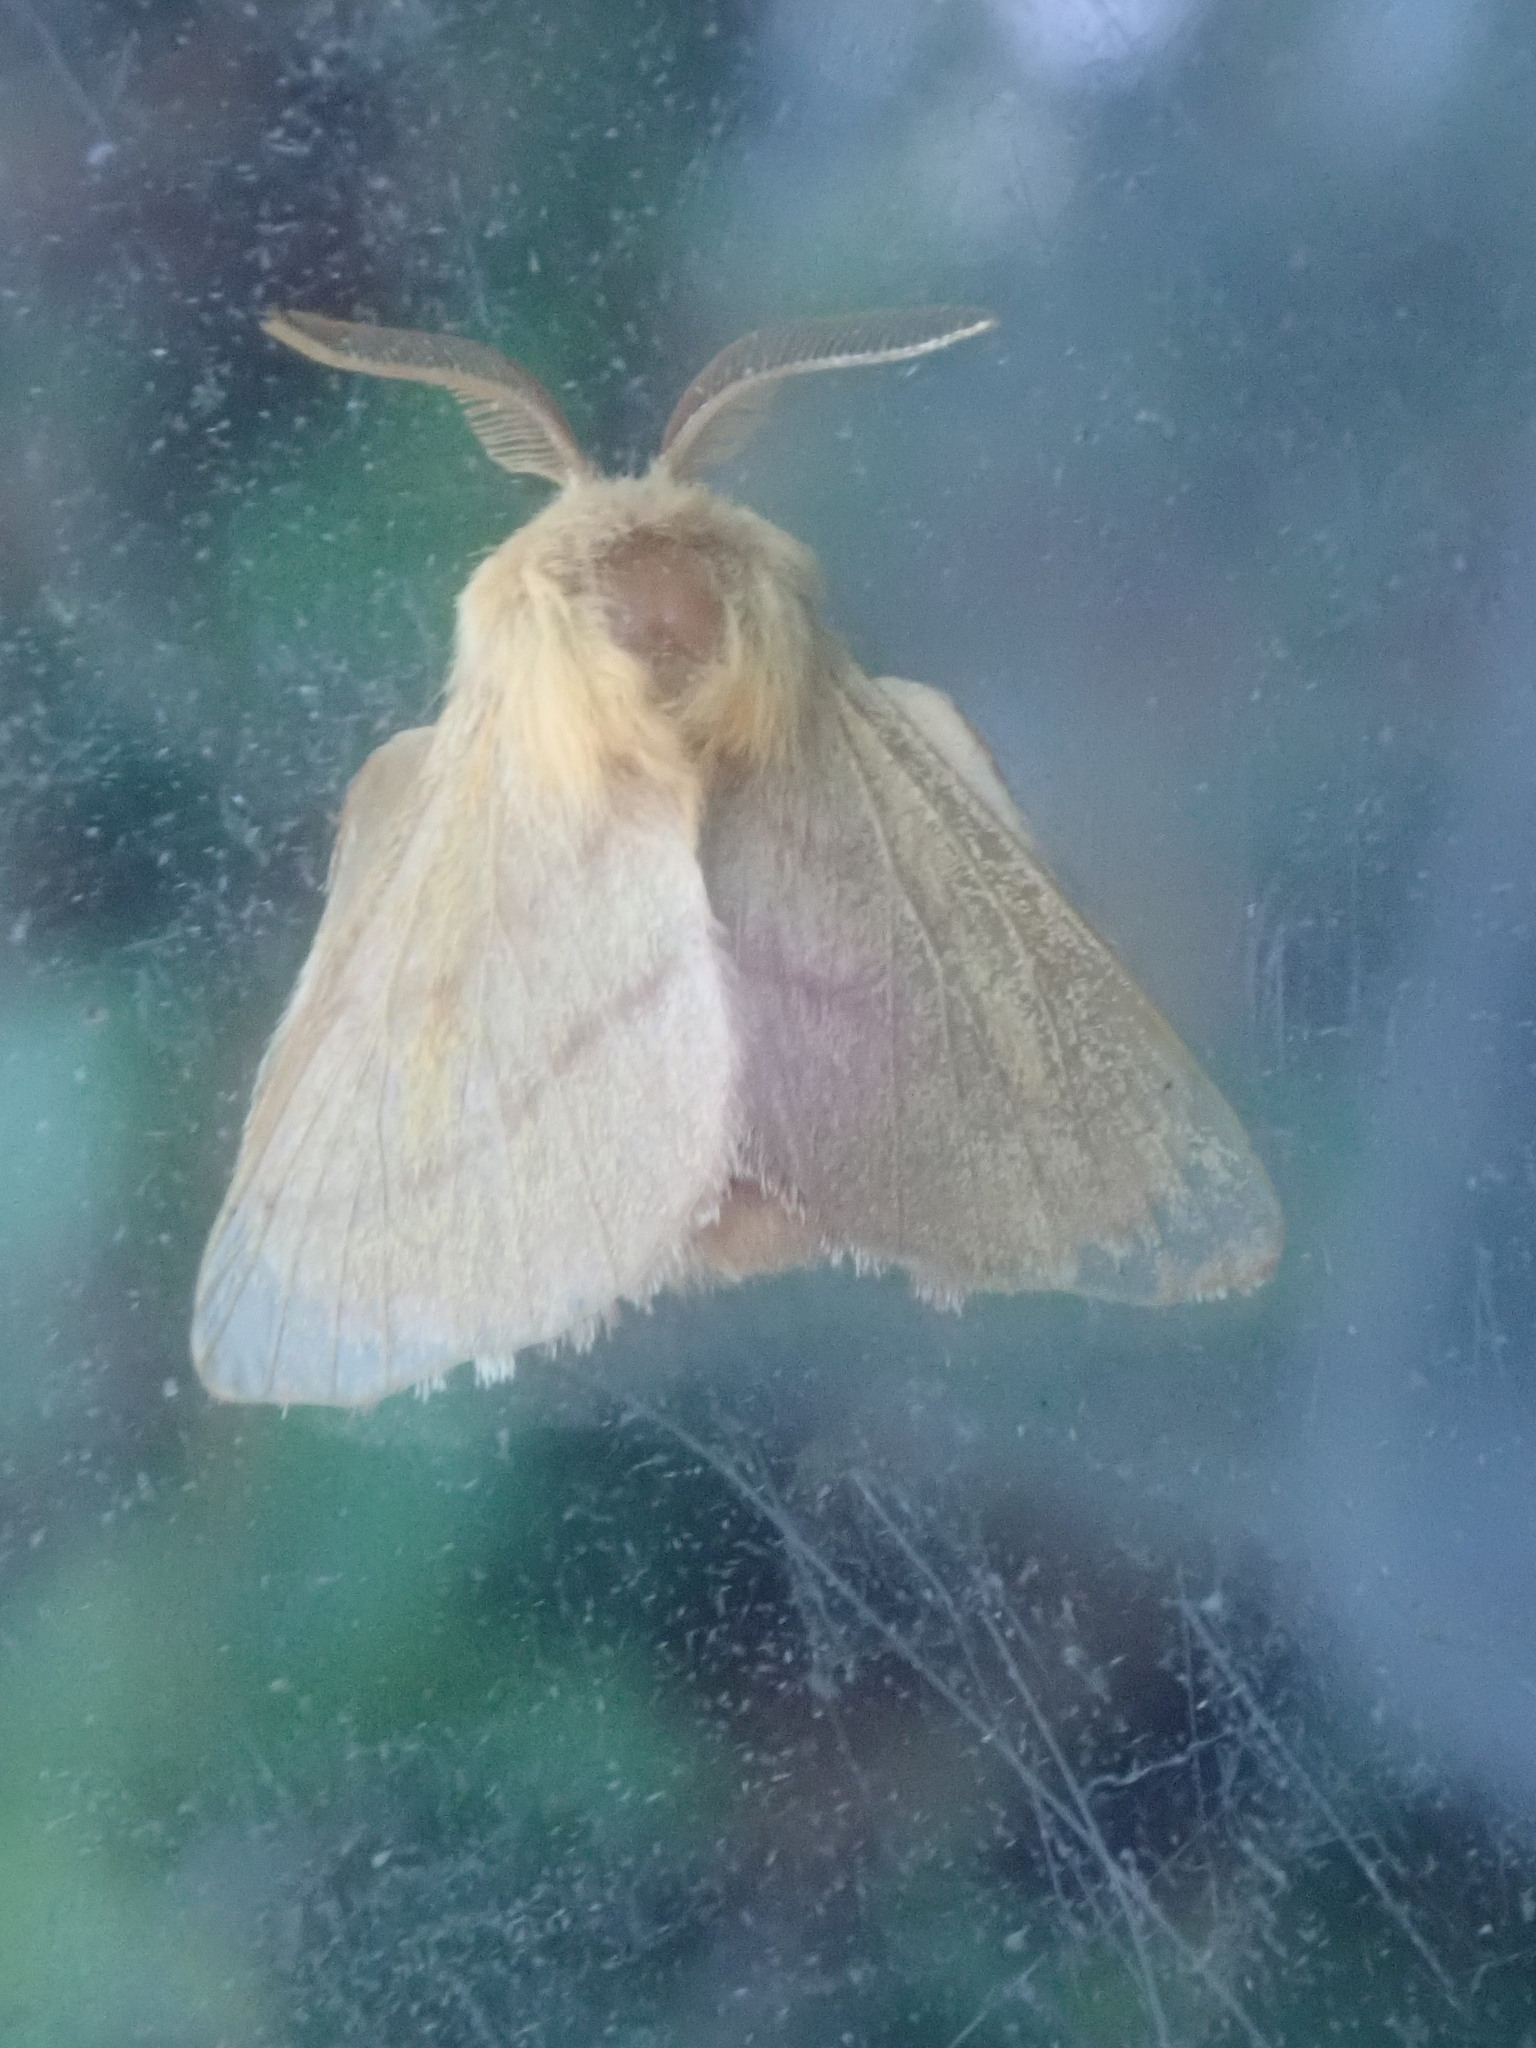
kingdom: Animalia
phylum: Arthropoda
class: Insecta
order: Lepidoptera
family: Lasiocampidae
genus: Malacosoma
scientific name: Malacosoma disstria
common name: Forest tent caterpillar
